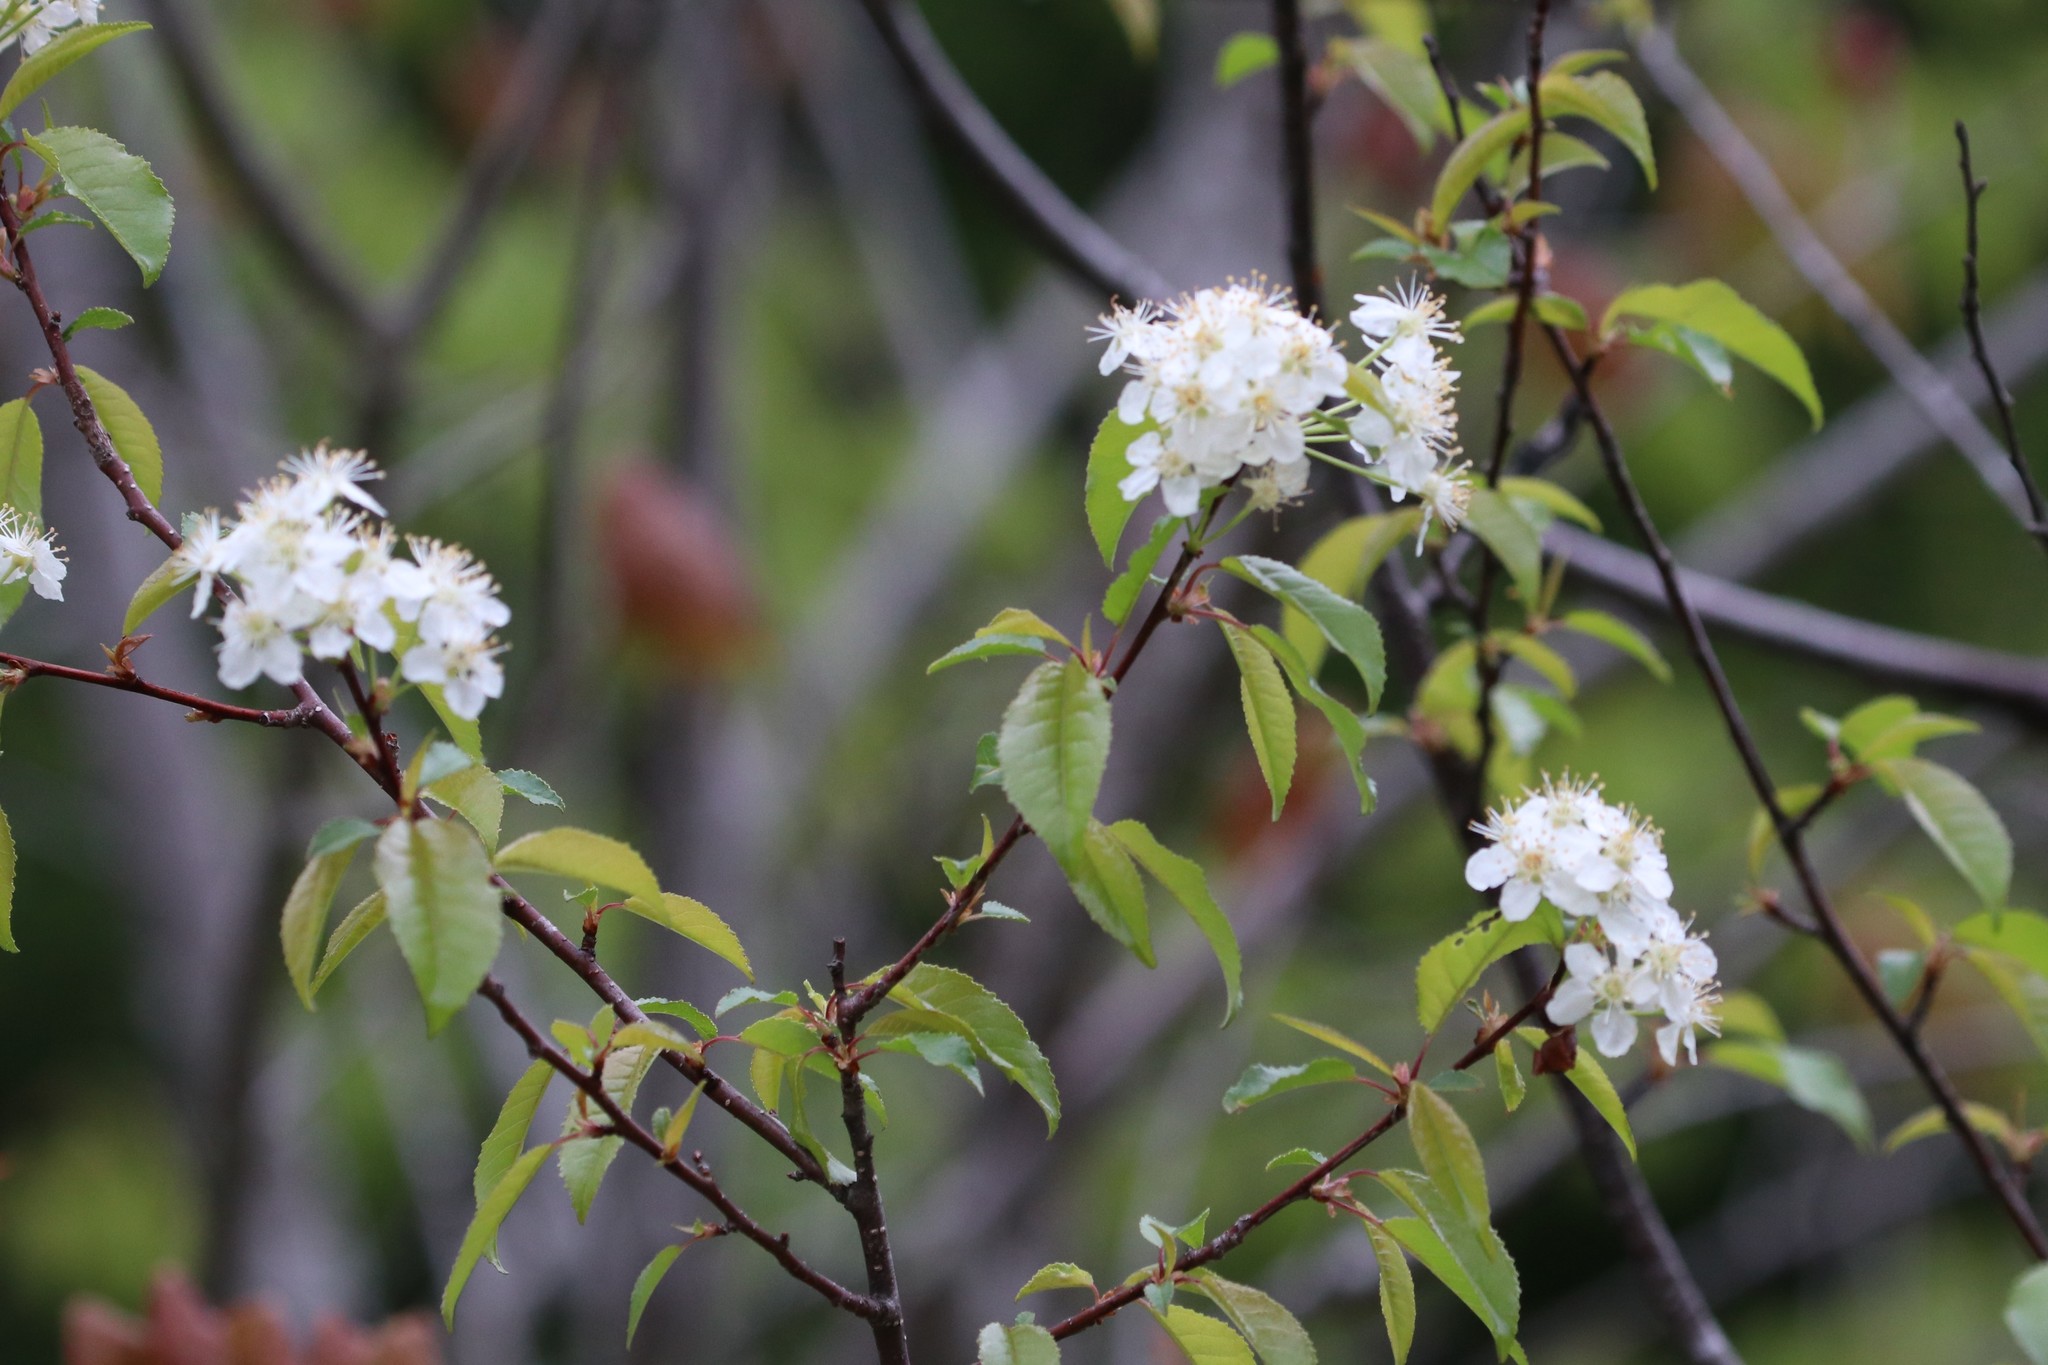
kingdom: Plantae
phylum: Tracheophyta
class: Magnoliopsida
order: Rosales
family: Rosaceae
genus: Prunus
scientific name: Prunus pensylvanica
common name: Pin cherry
